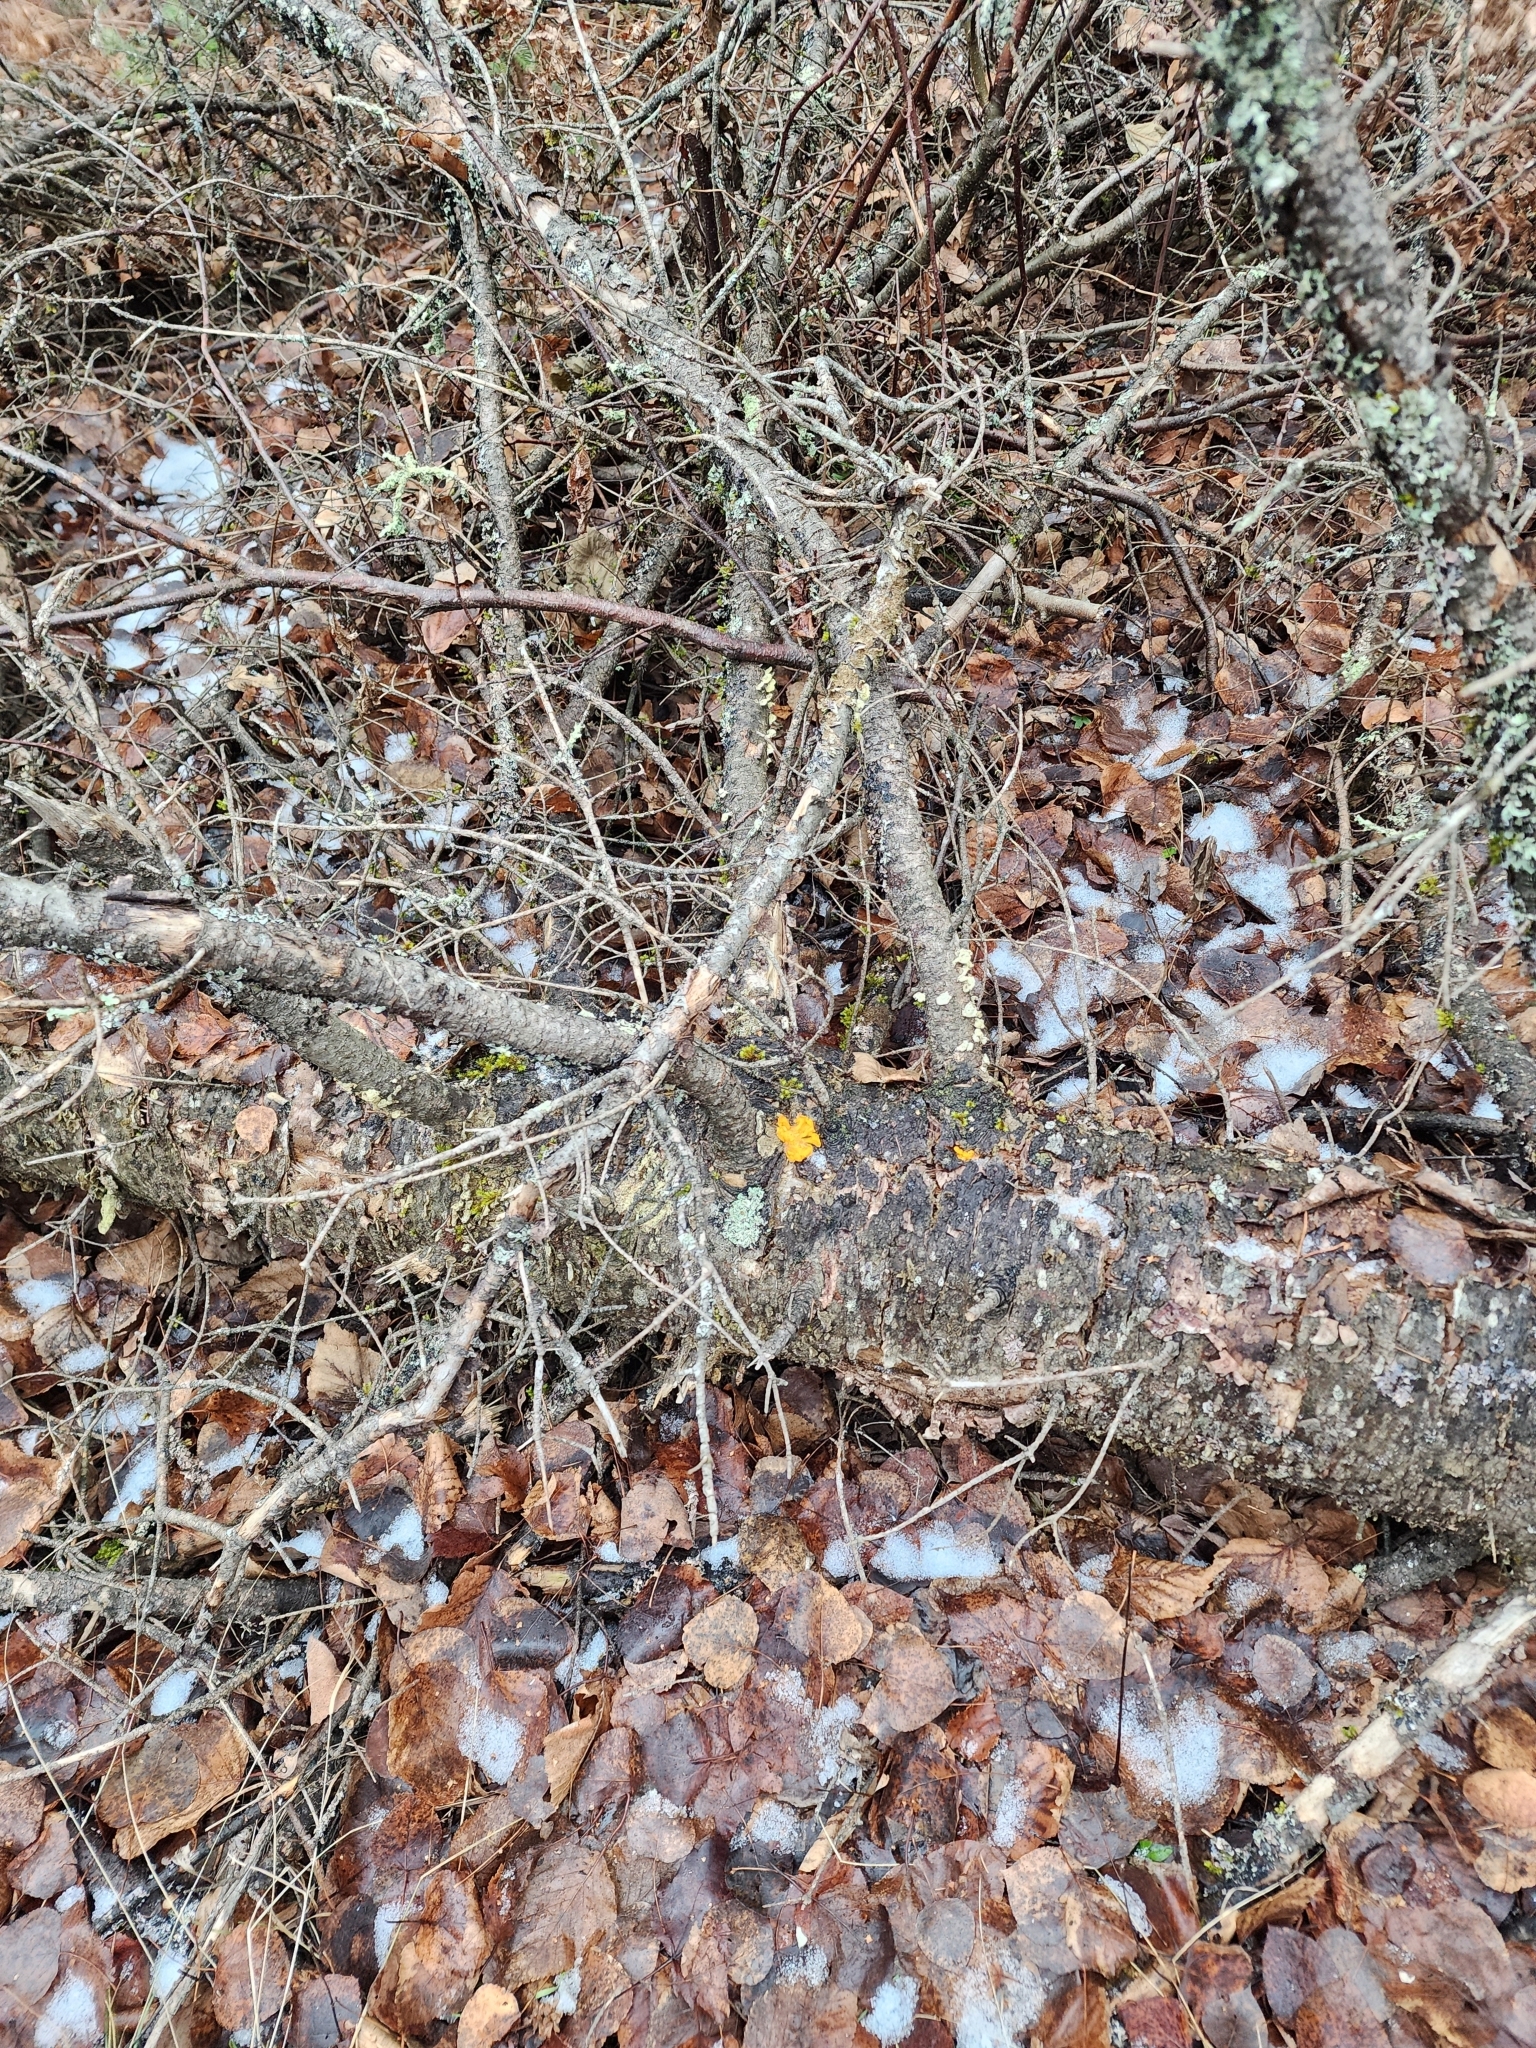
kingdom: Fungi
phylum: Basidiomycota
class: Dacrymycetes
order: Dacrymycetales
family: Dacrymycetaceae
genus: Dacrymyces
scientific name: Dacrymyces chrysospermus
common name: Orange jelly spot
